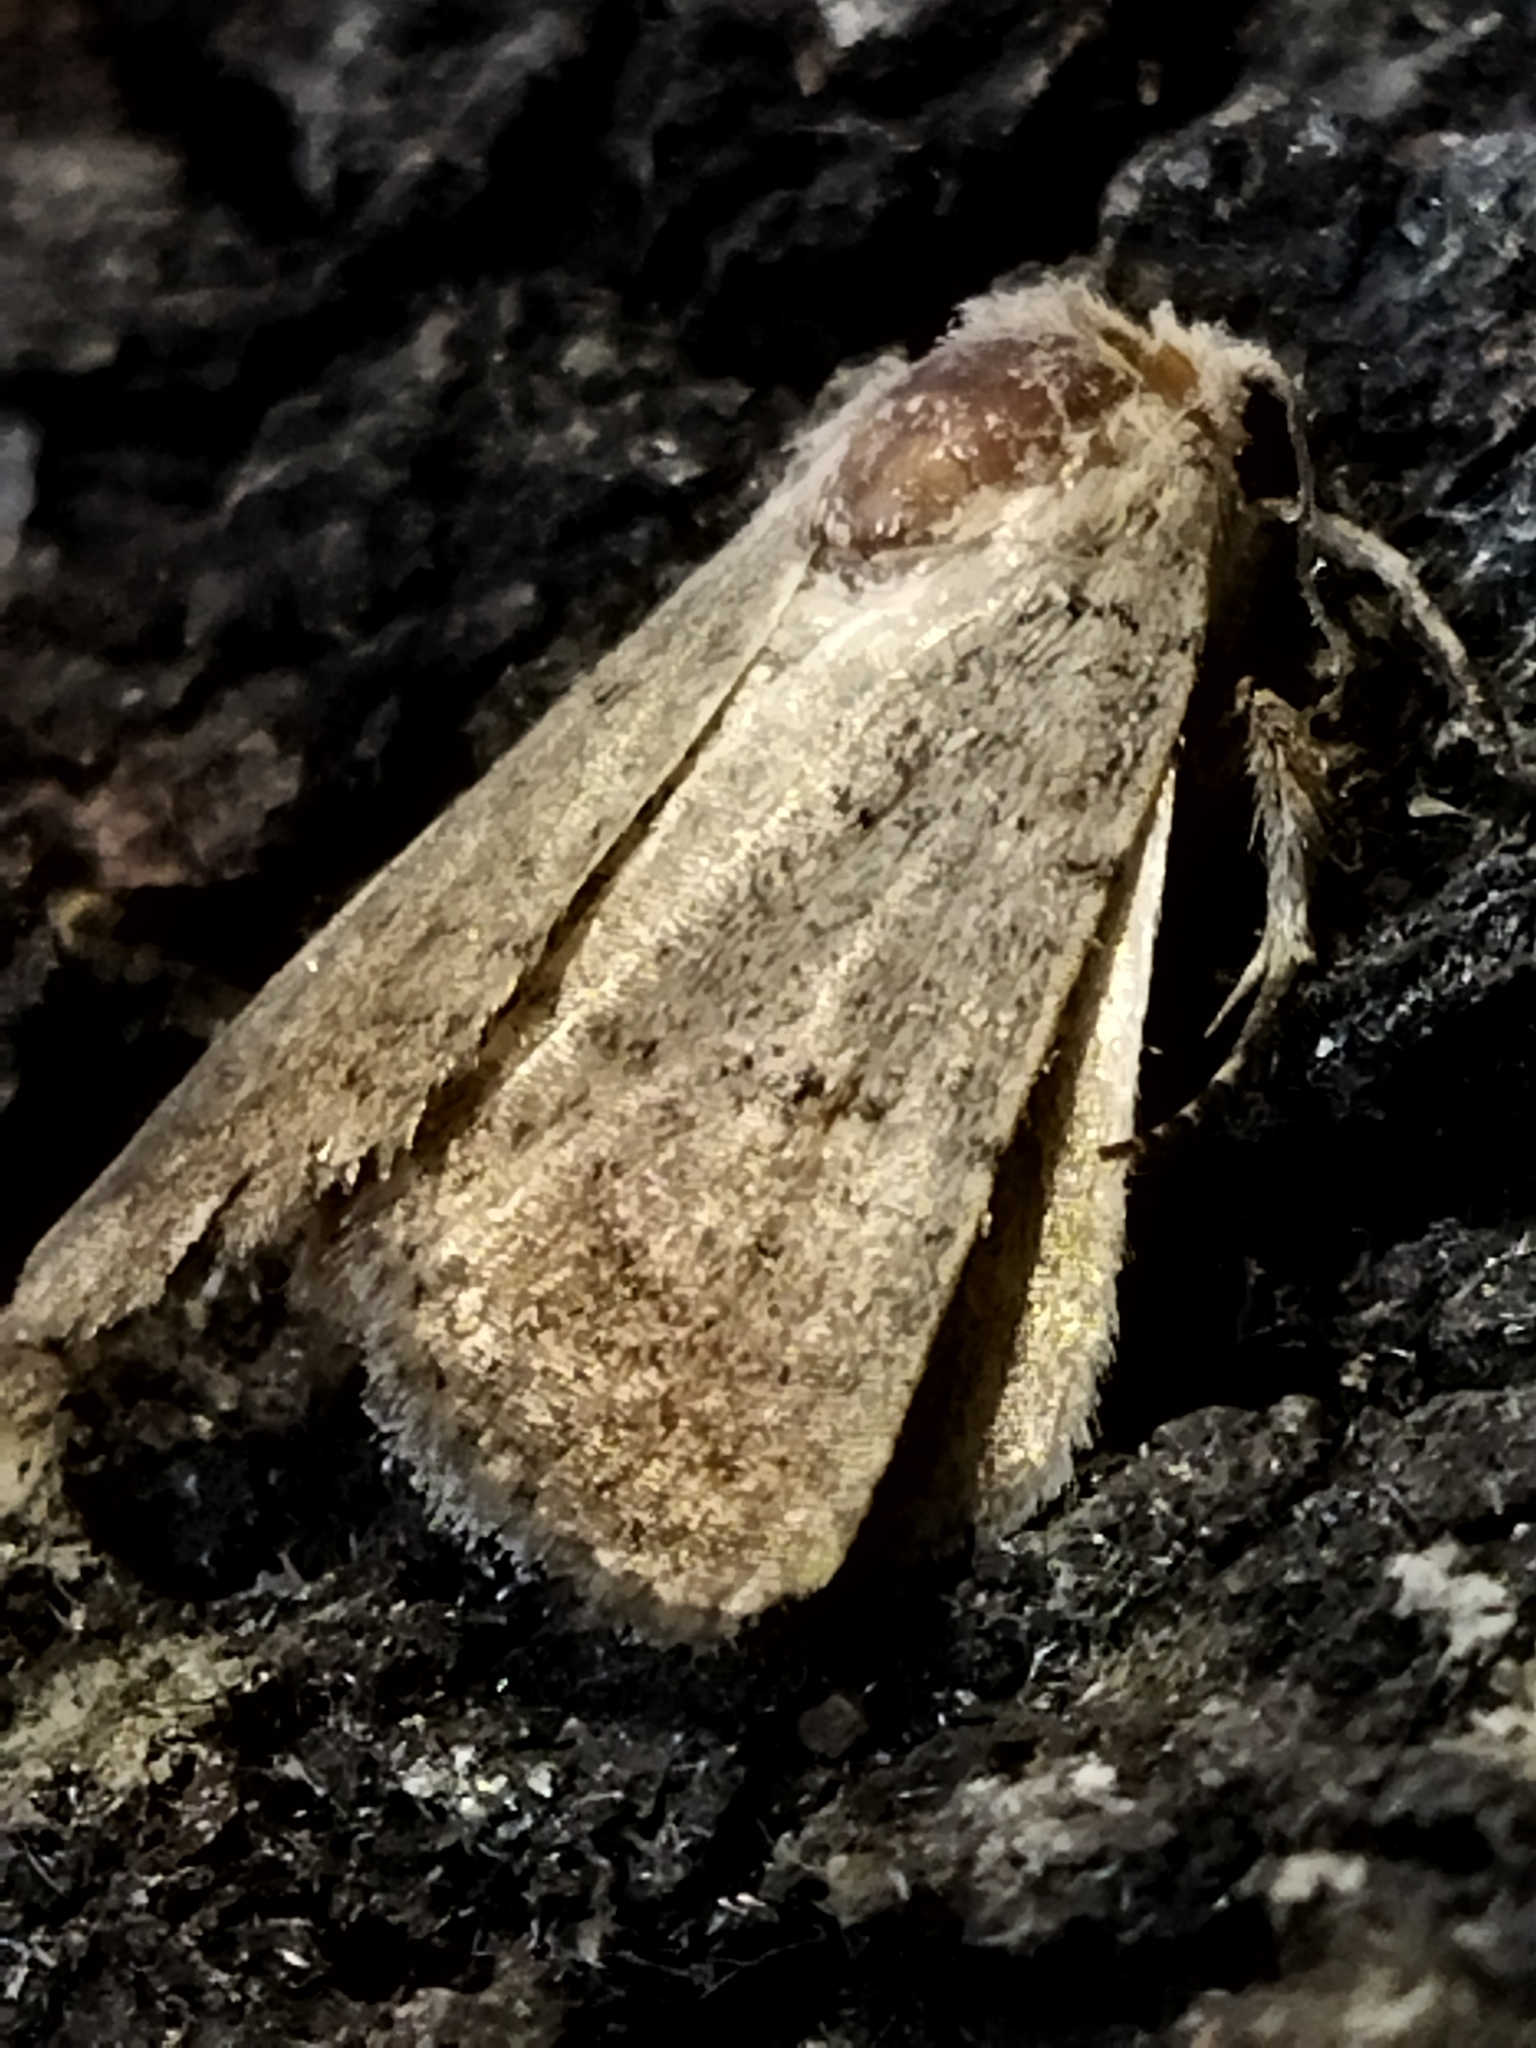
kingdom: Animalia
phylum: Arthropoda
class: Insecta
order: Lepidoptera
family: Noctuidae
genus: Caradrina
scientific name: Caradrina aspersa
